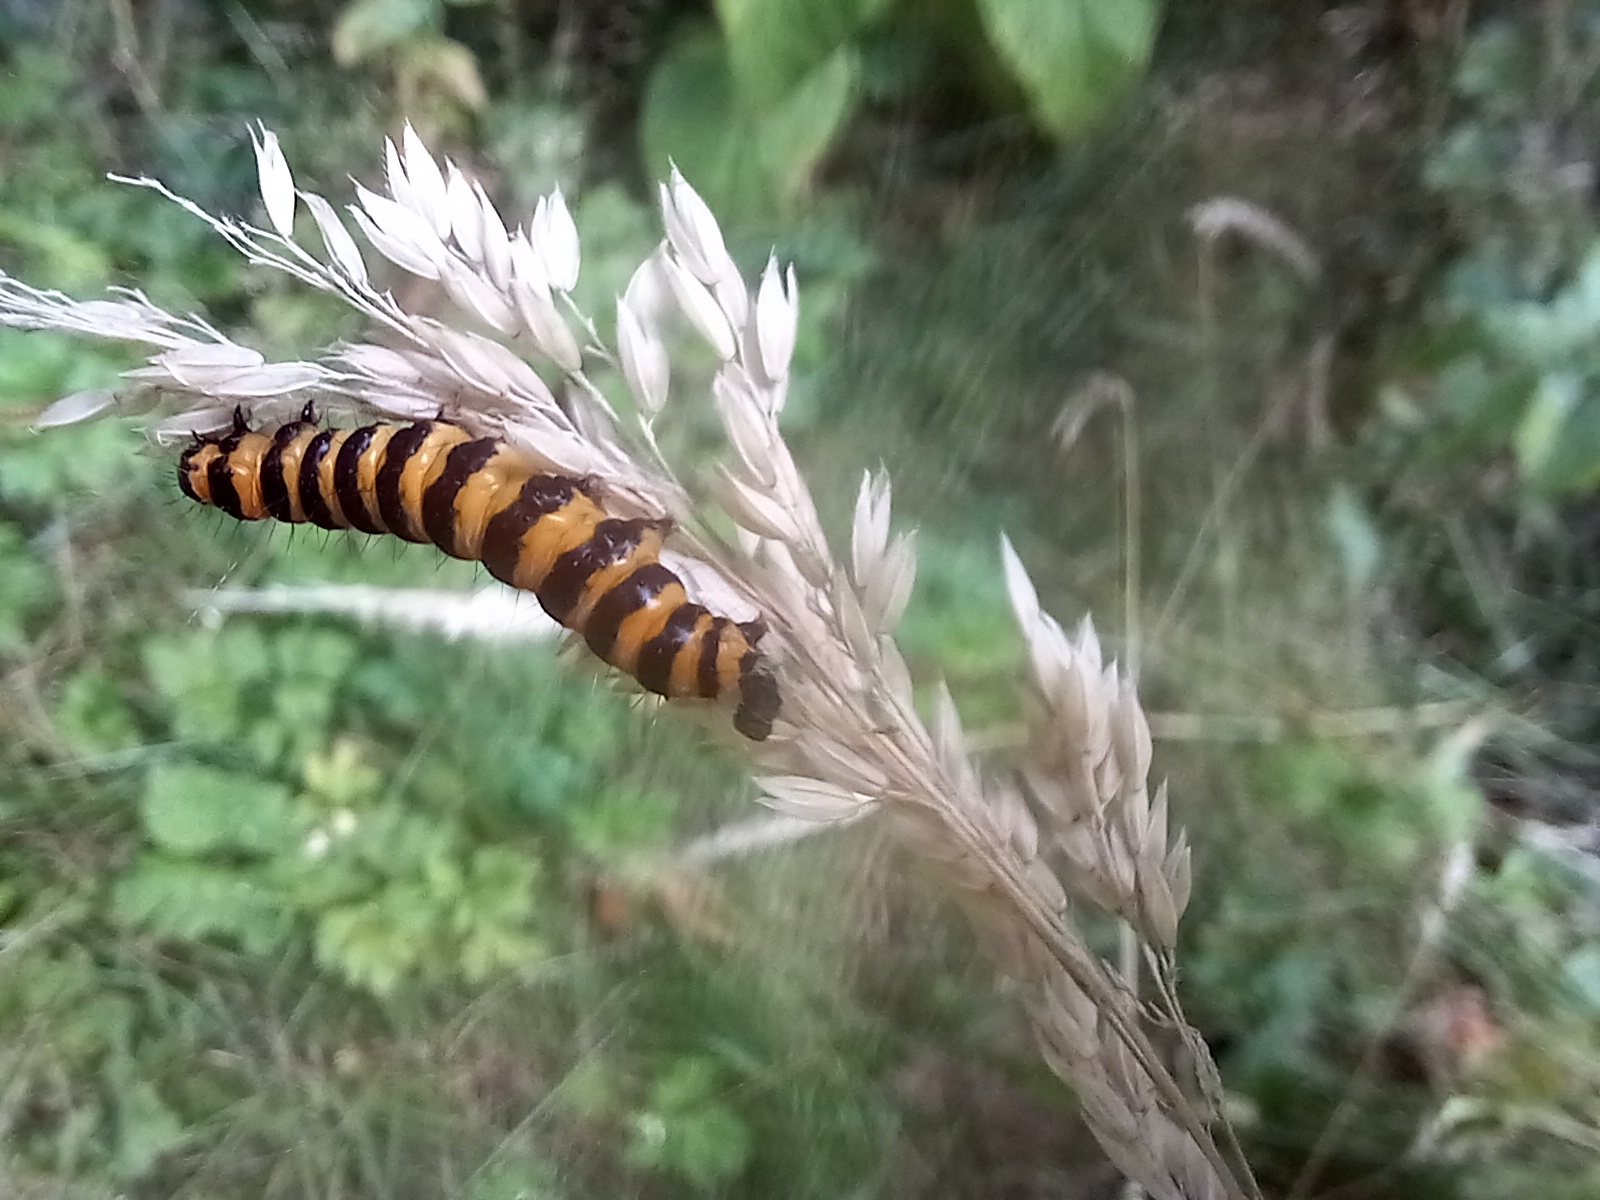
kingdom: Animalia
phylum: Arthropoda
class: Insecta
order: Lepidoptera
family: Erebidae
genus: Tyria
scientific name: Tyria jacobaeae
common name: Cinnabar
